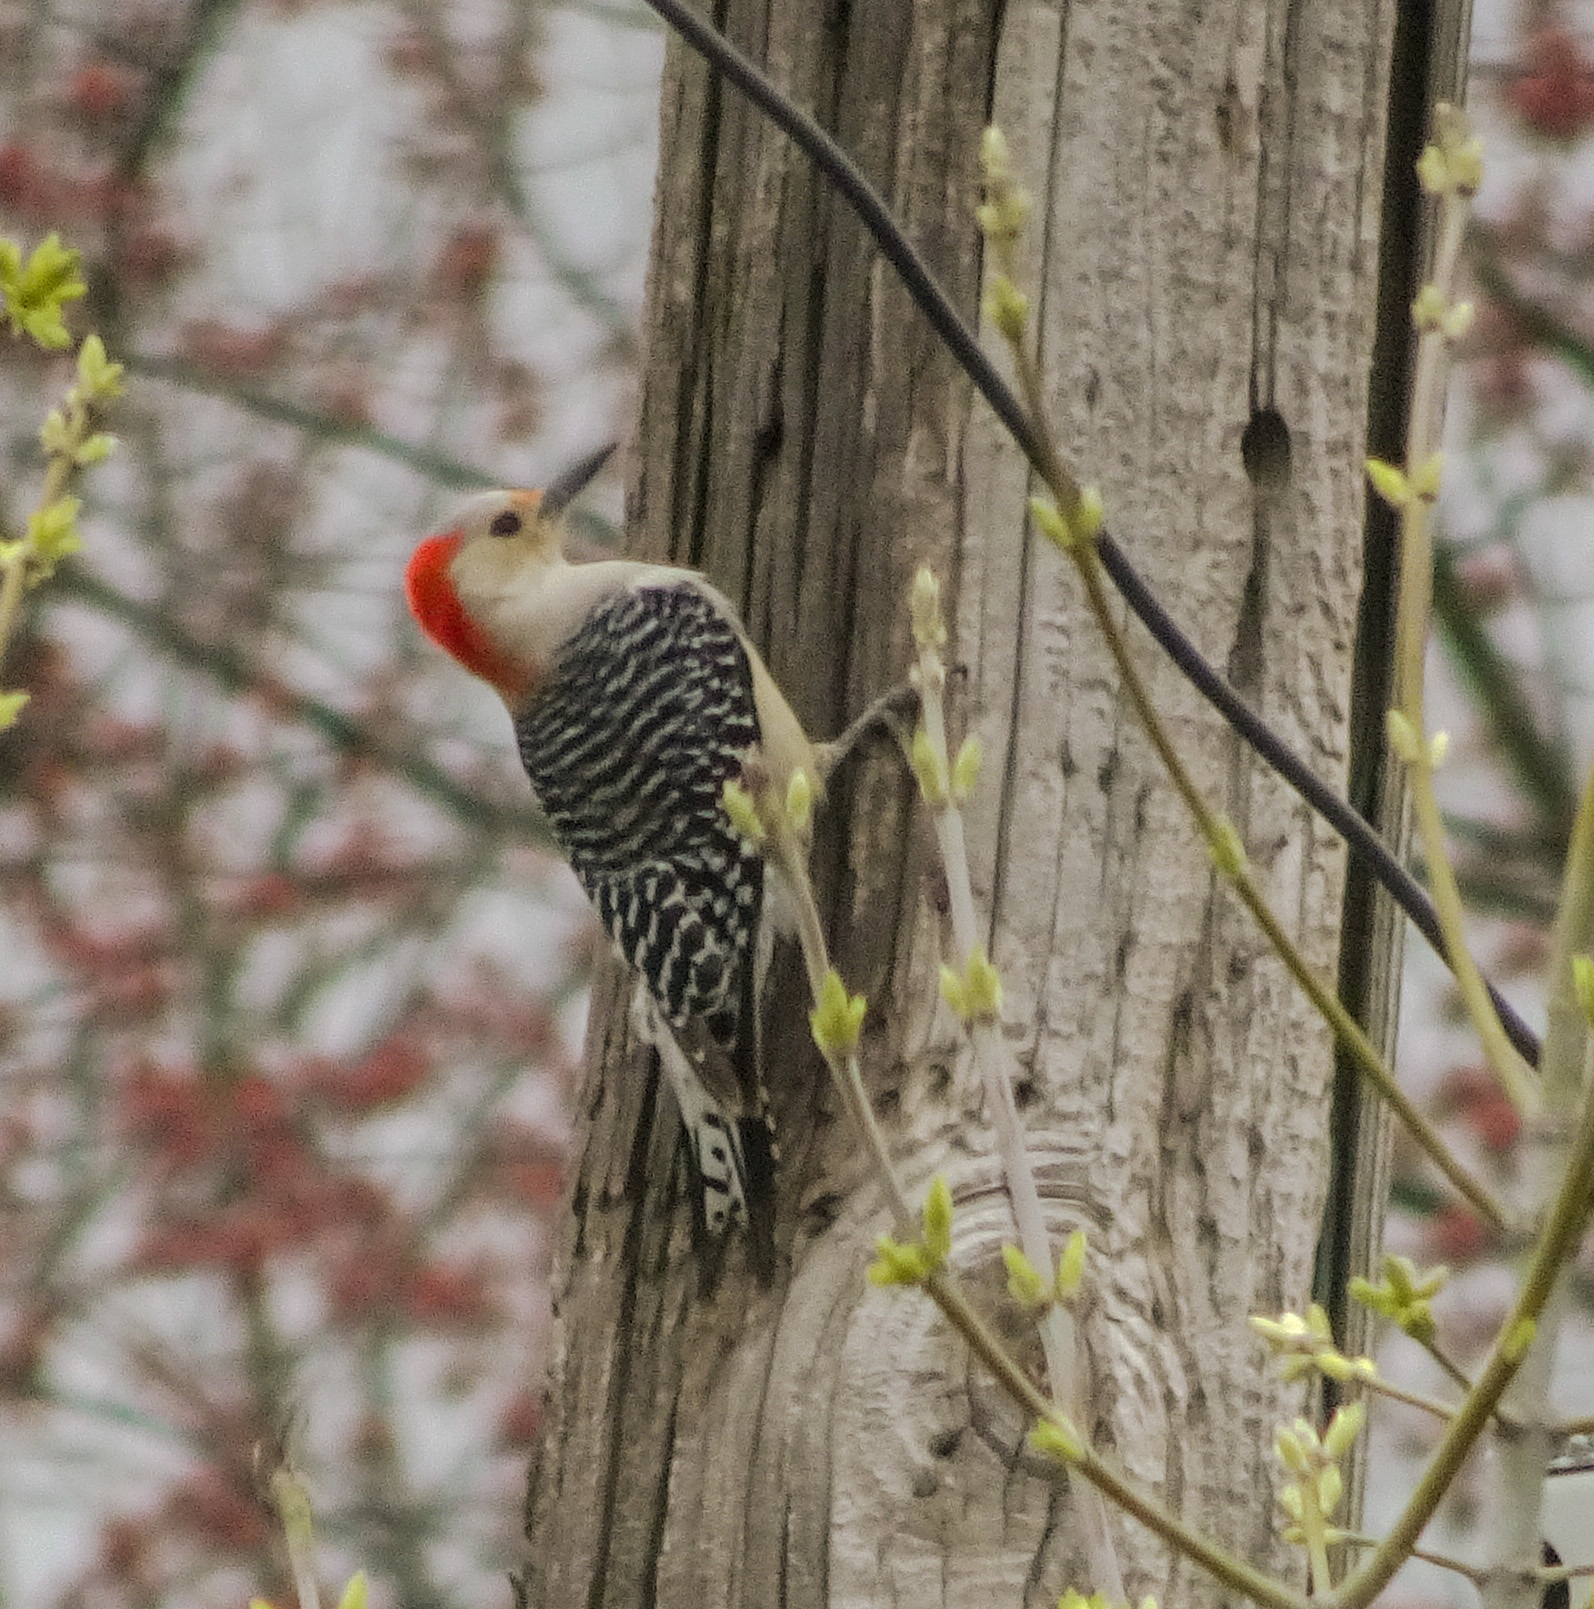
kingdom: Animalia
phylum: Chordata
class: Aves
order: Piciformes
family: Picidae
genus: Melanerpes
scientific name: Melanerpes carolinus
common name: Red-bellied woodpecker
